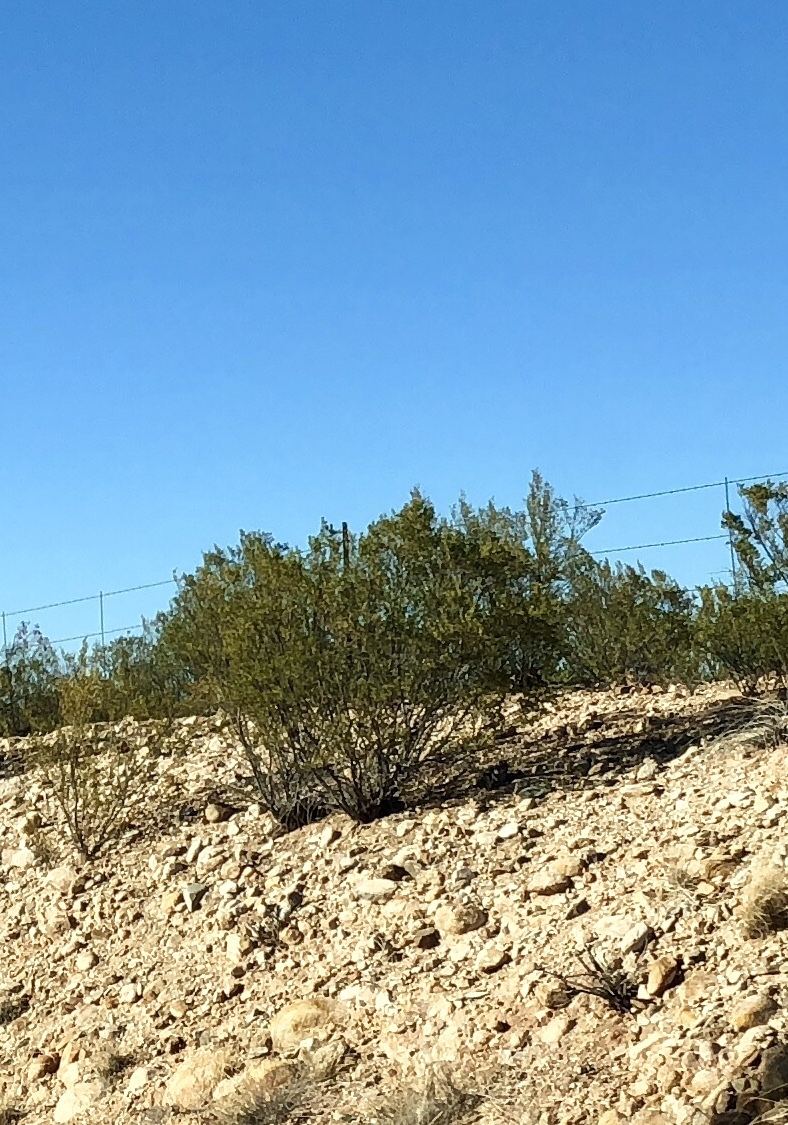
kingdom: Plantae
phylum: Tracheophyta
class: Magnoliopsida
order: Zygophyllales
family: Zygophyllaceae
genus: Larrea
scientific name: Larrea tridentata
